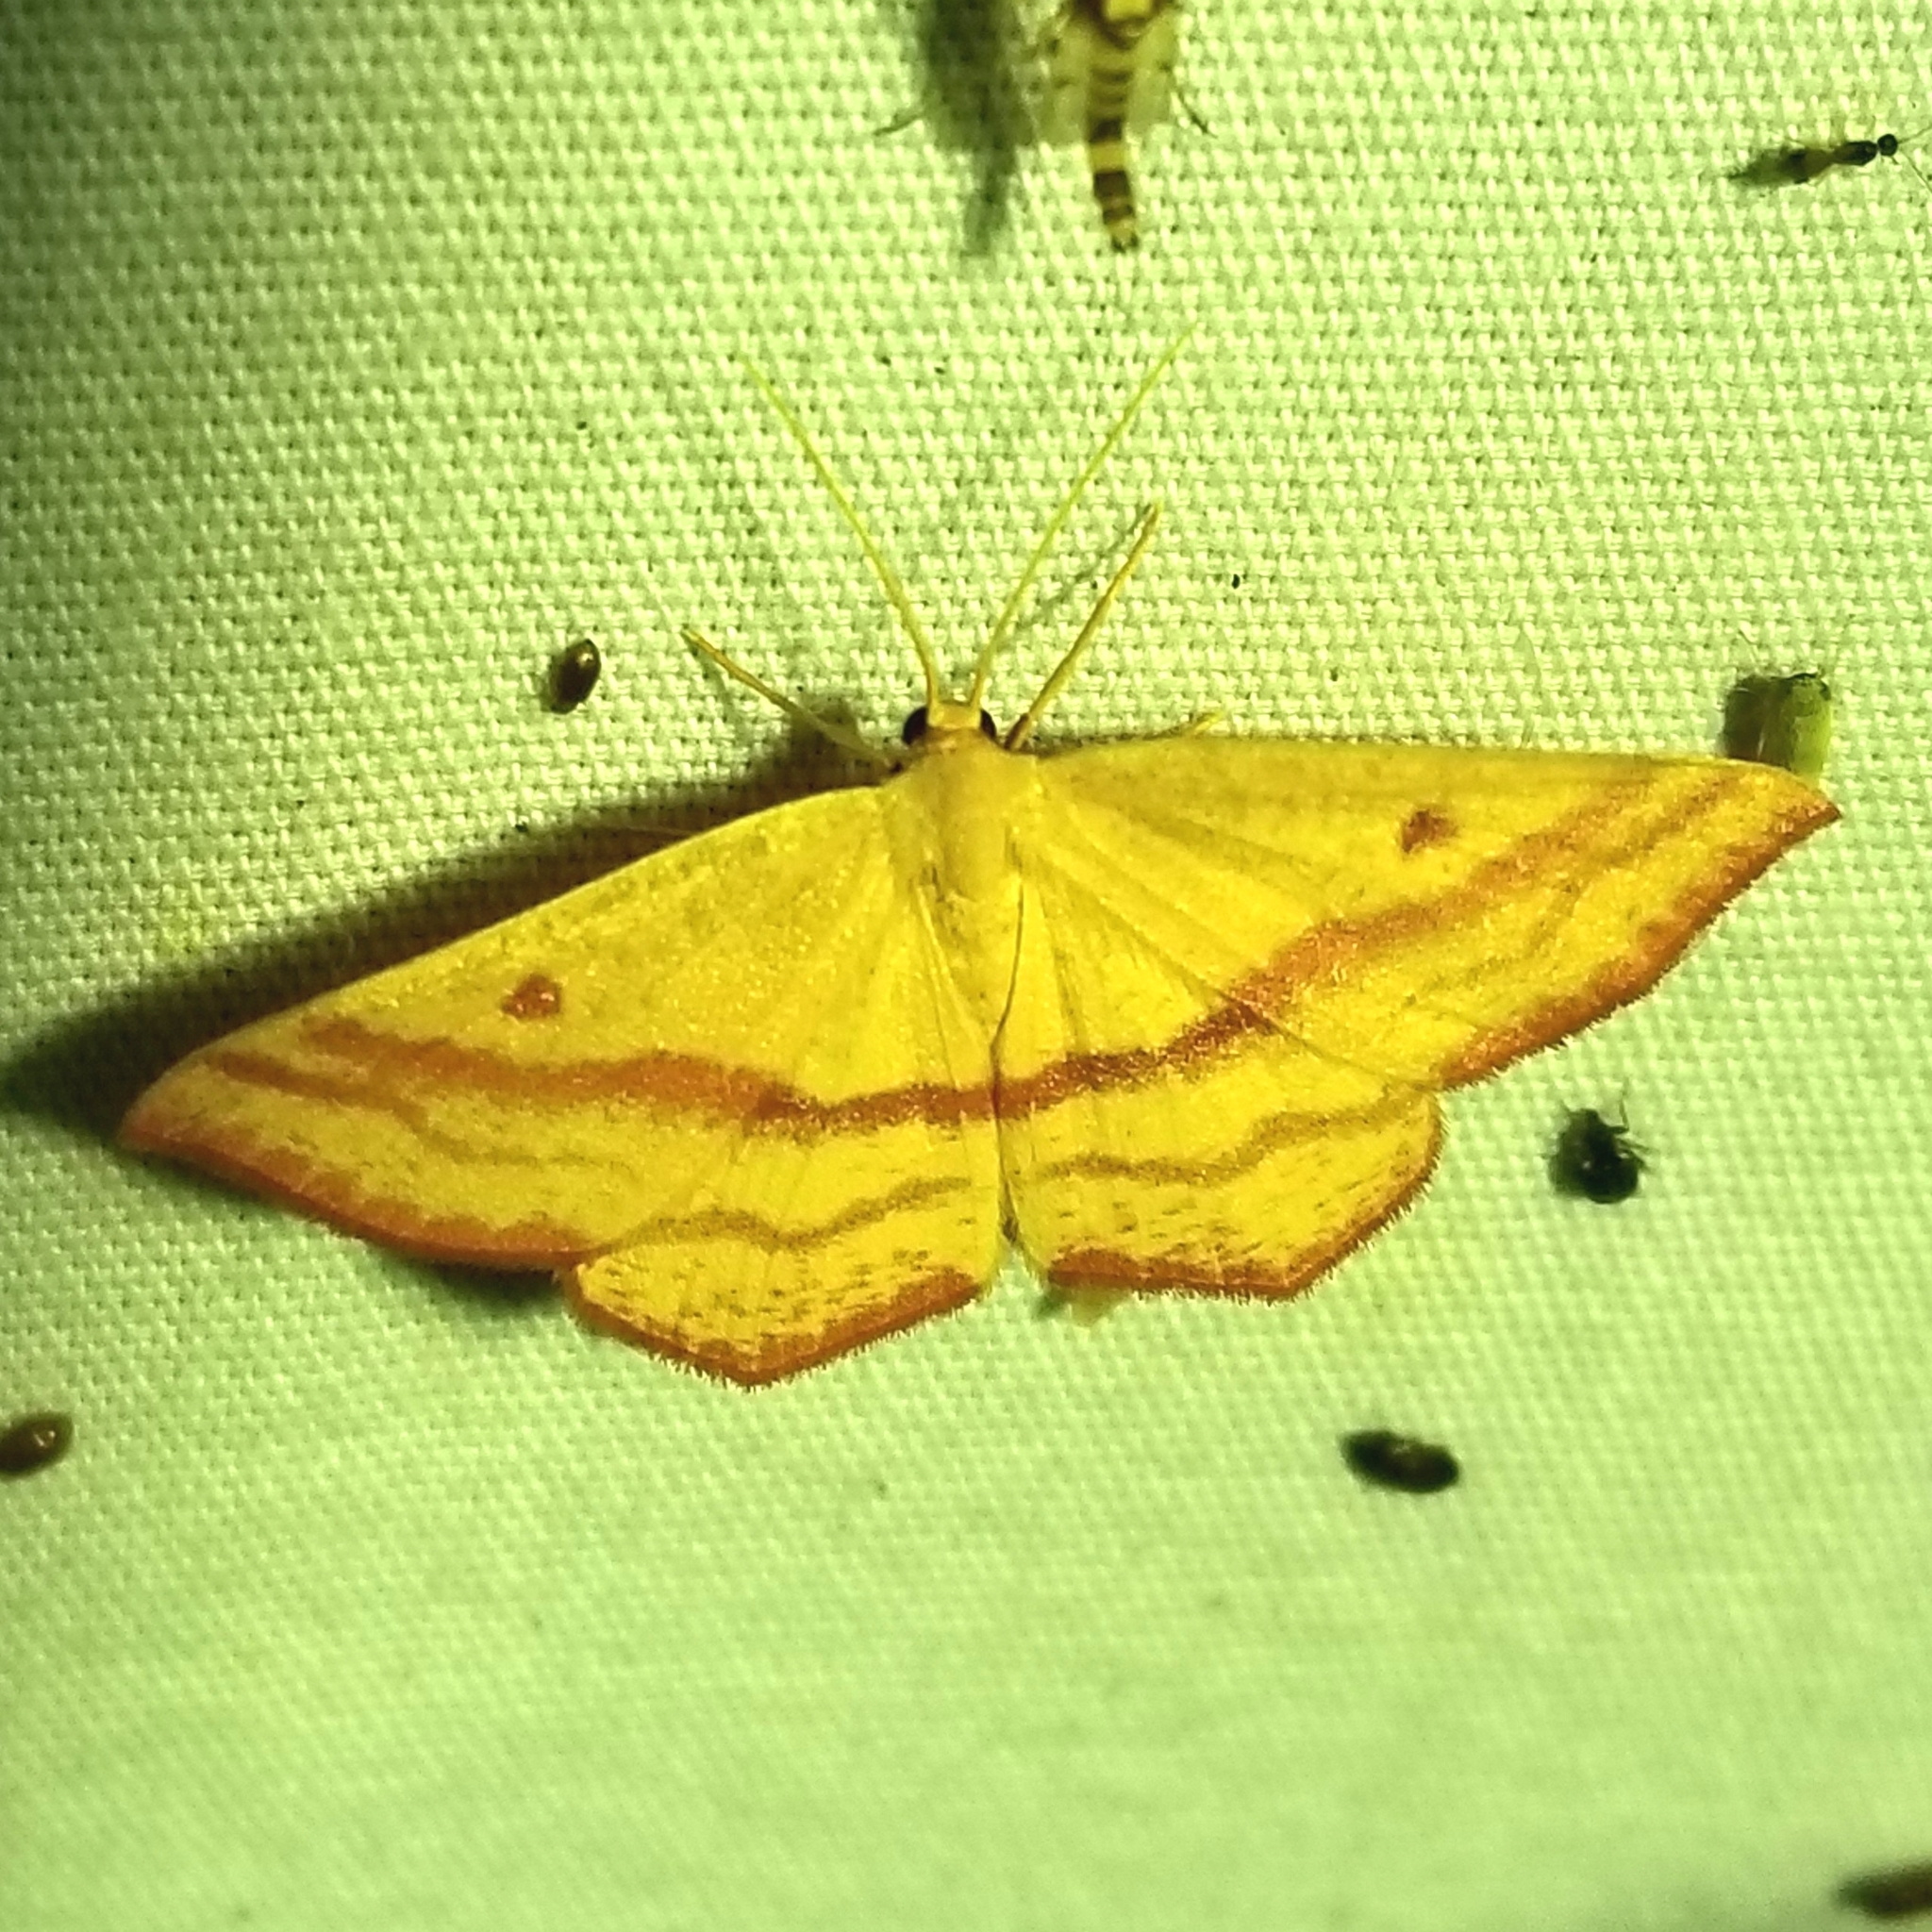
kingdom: Animalia
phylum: Arthropoda
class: Insecta
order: Lepidoptera
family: Geometridae
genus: Haematopis
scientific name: Haematopis grataria
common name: Chickweed geometer
